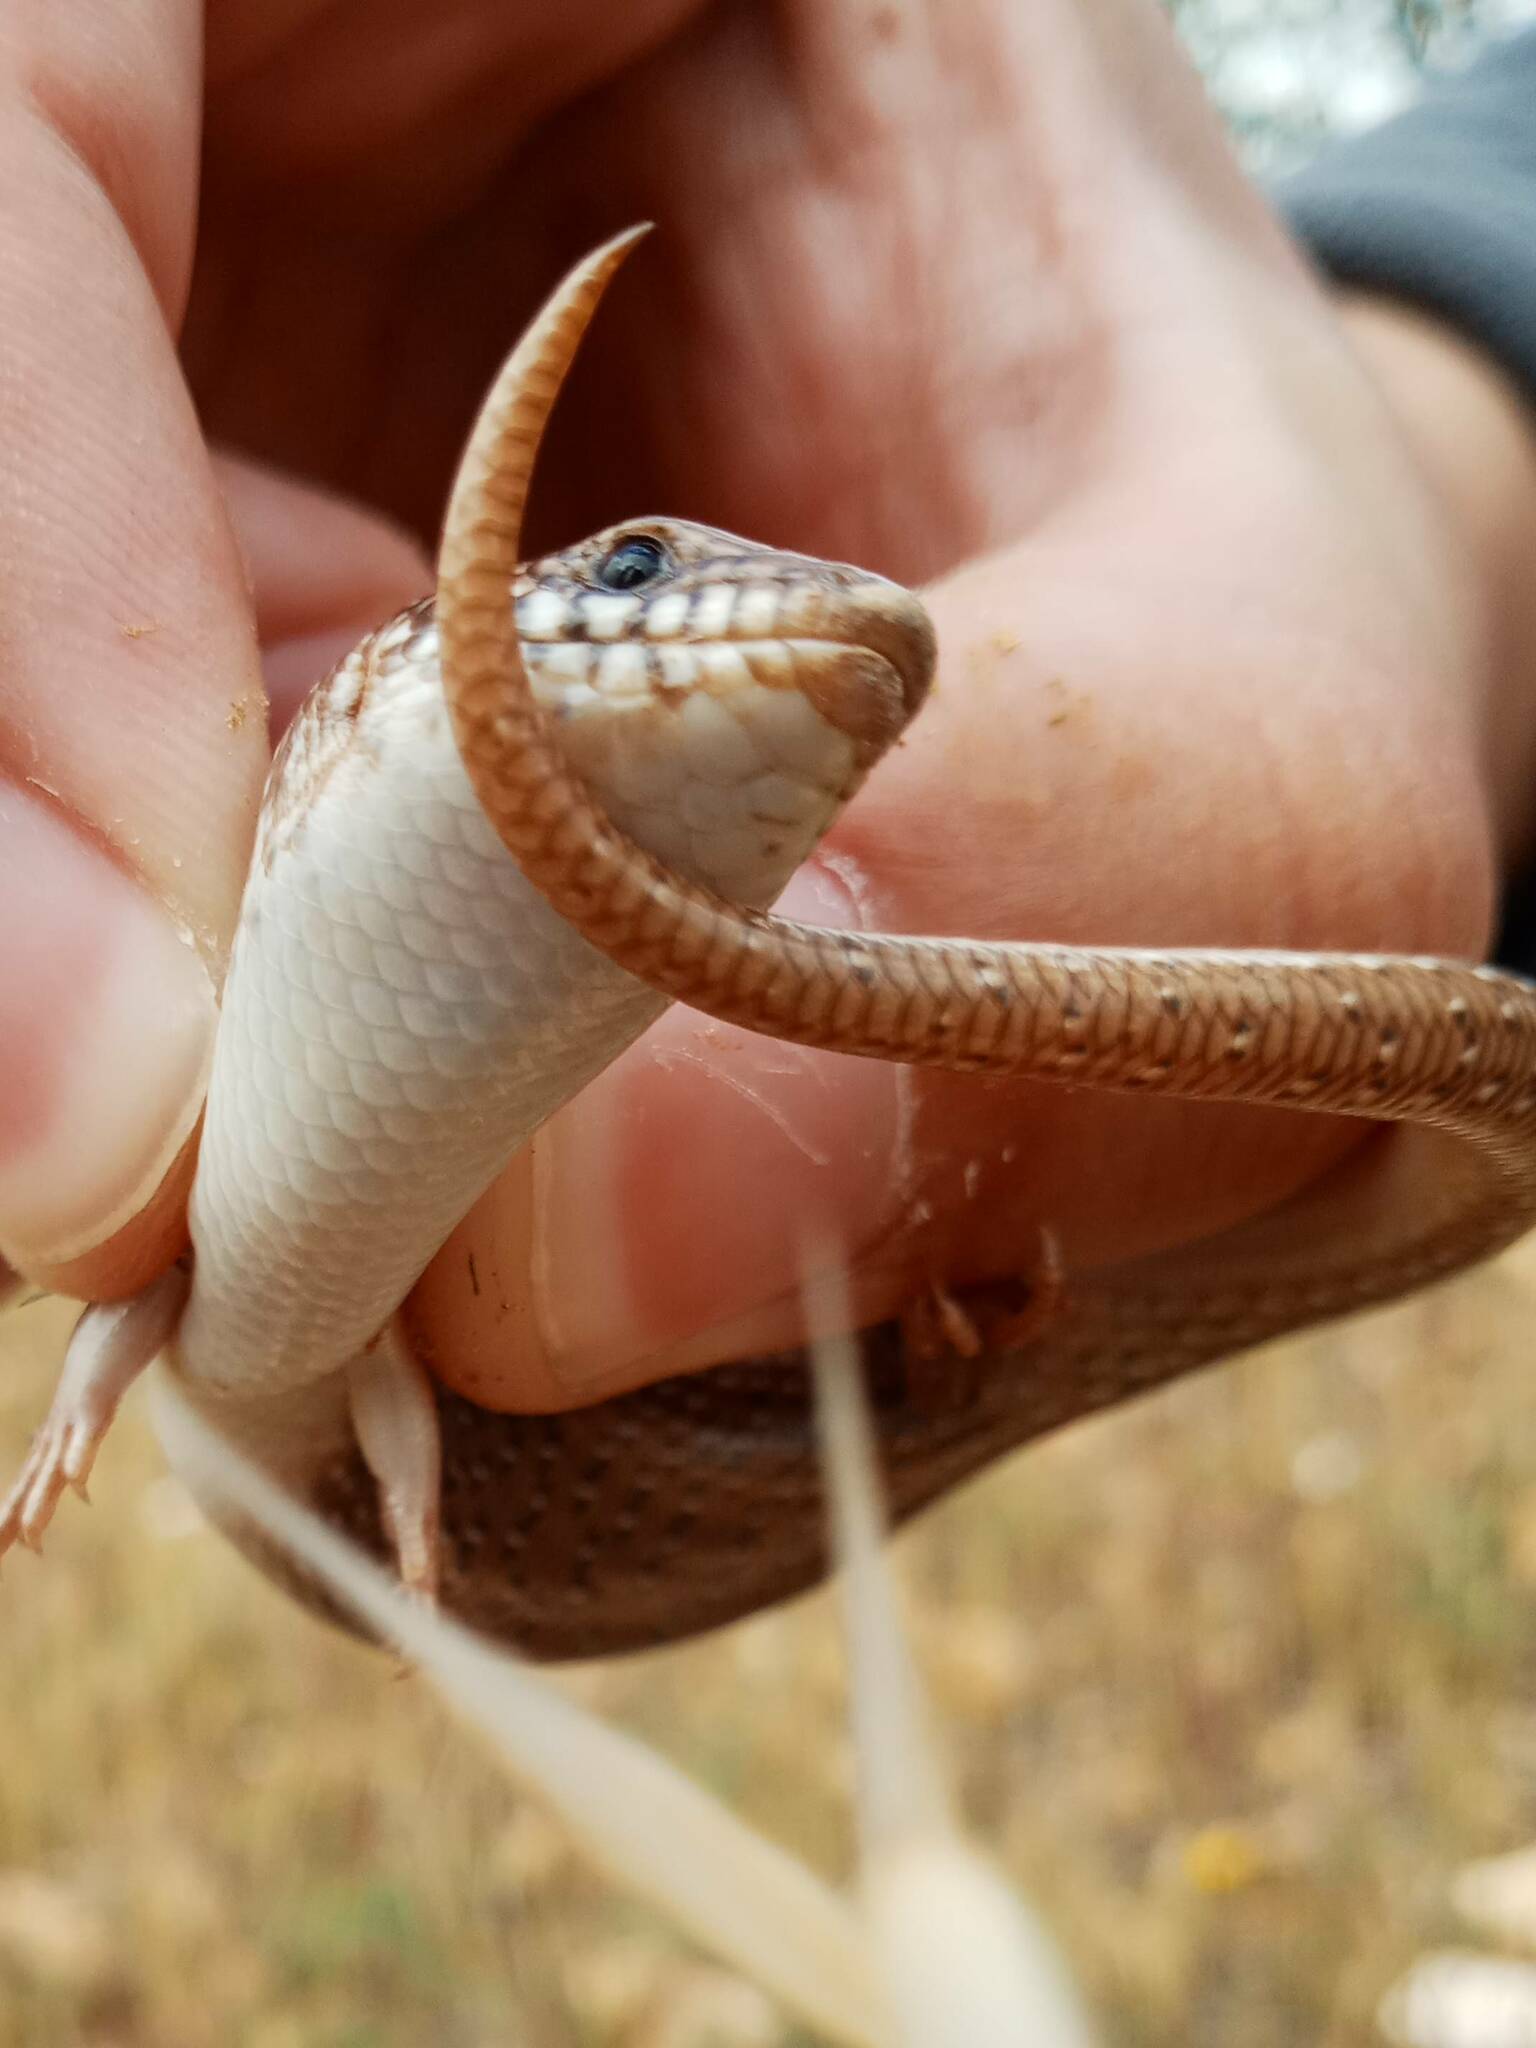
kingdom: Animalia
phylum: Chordata
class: Squamata
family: Scincidae
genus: Chalcides
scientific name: Chalcides ocellatus
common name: Ocellated skink
